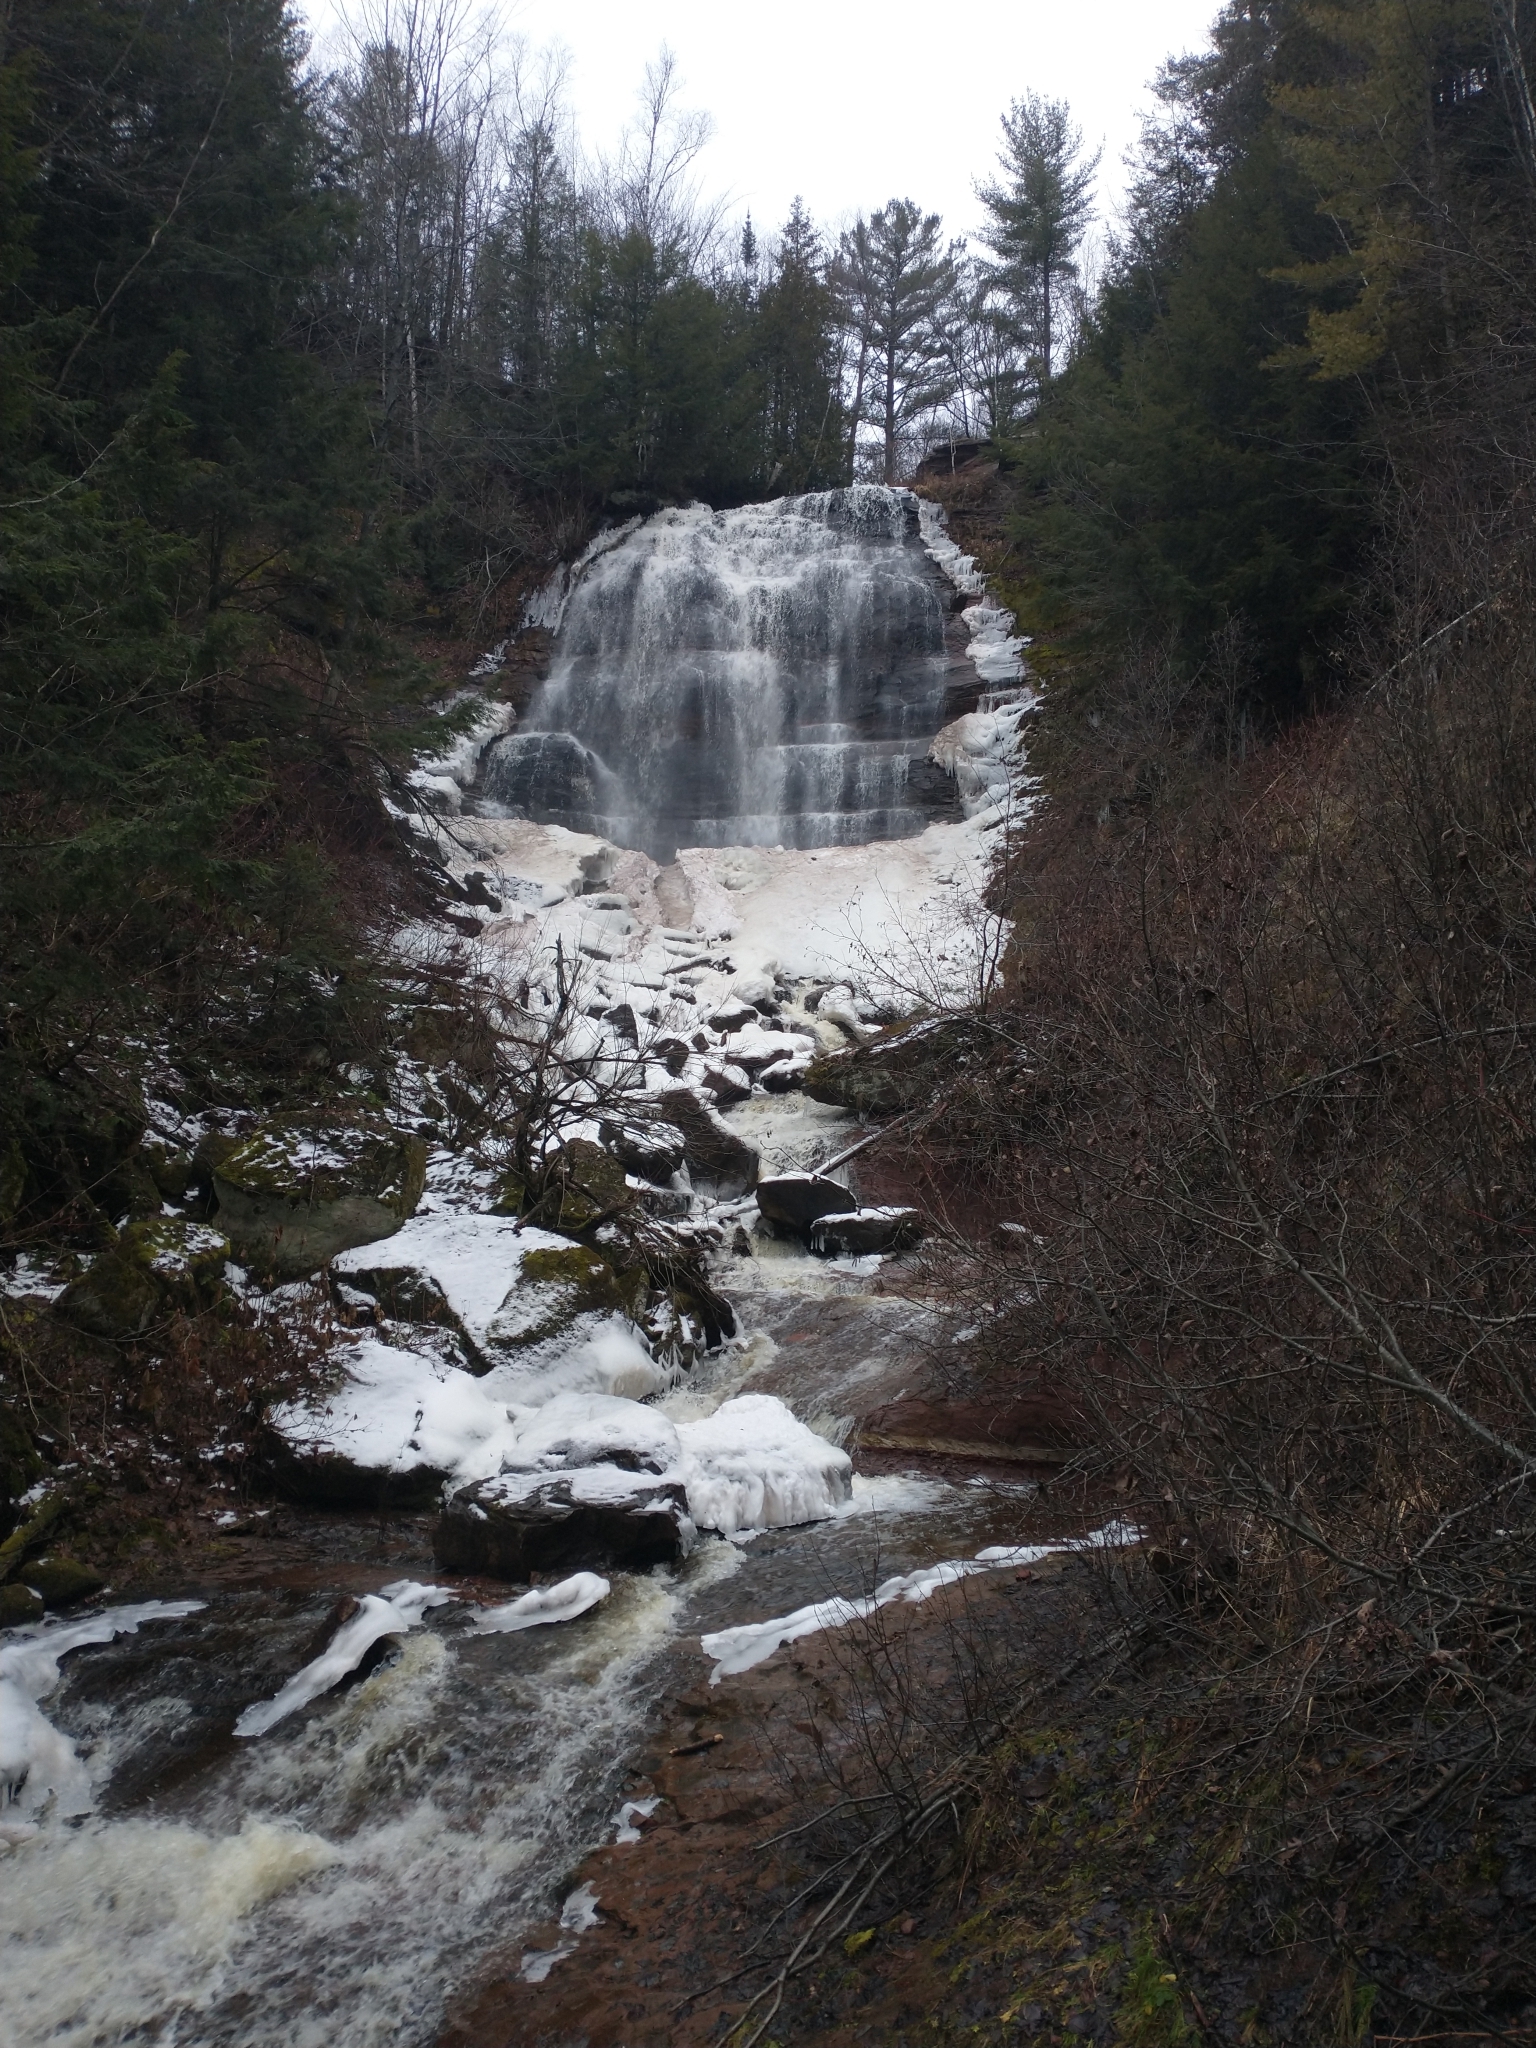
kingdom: Plantae
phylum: Tracheophyta
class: Pinopsida
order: Pinales
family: Pinaceae
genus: Tsuga
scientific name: Tsuga canadensis
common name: Eastern hemlock
